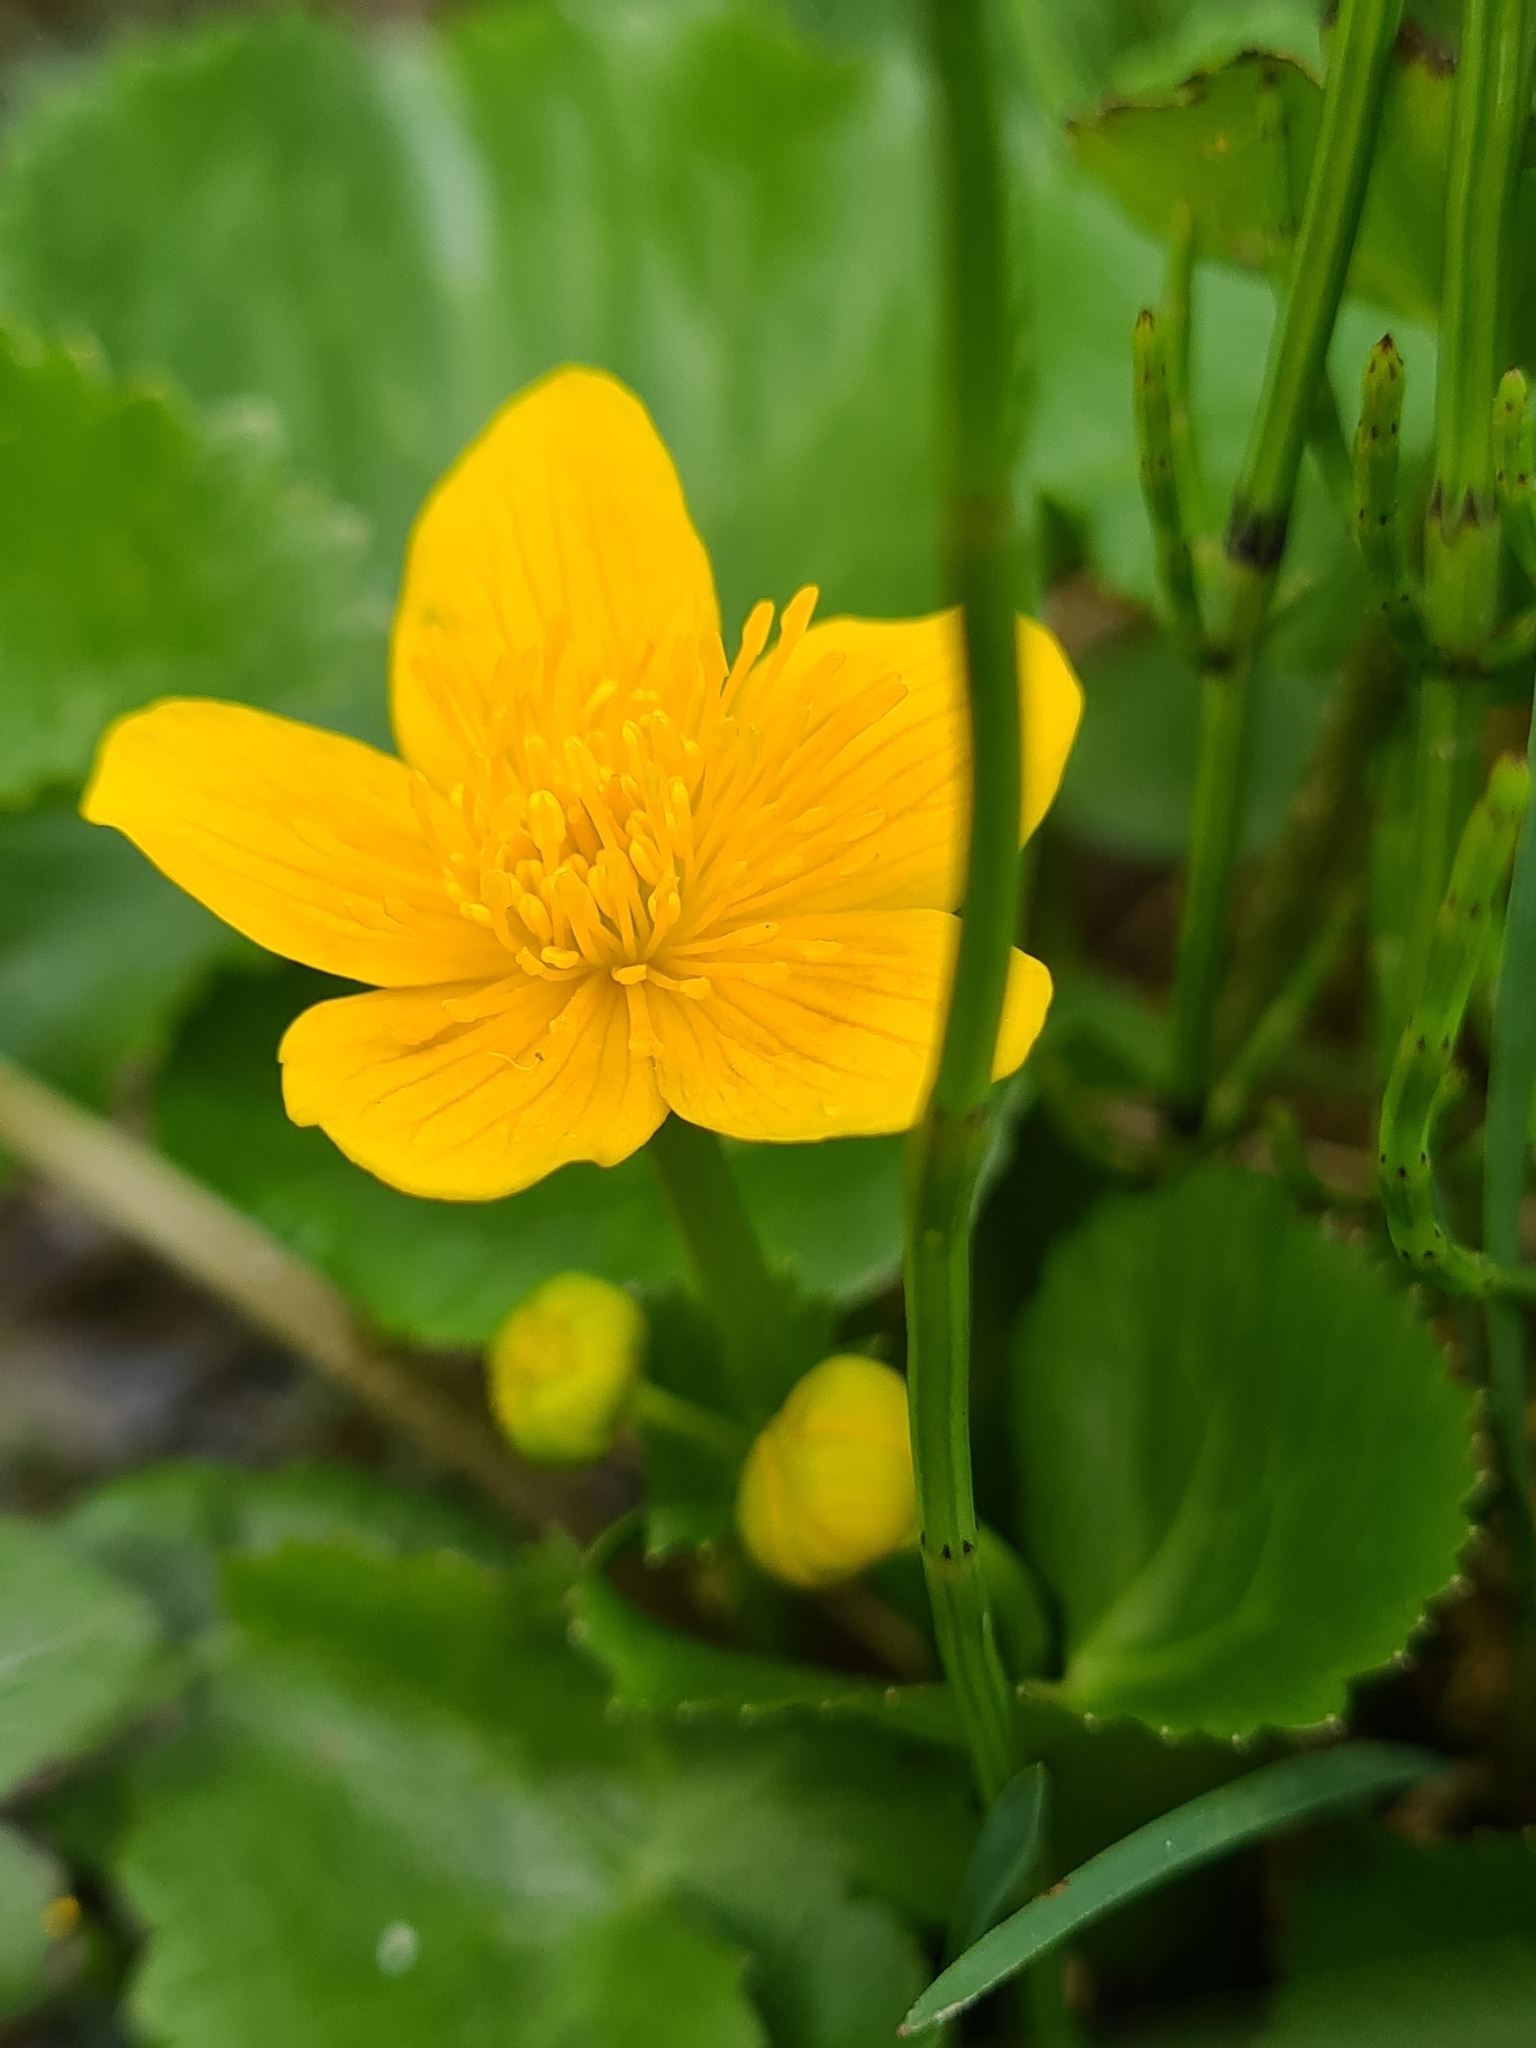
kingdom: Plantae
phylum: Tracheophyta
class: Magnoliopsida
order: Ranunculales
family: Ranunculaceae
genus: Caltha
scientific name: Caltha palustris
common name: Marsh marigold
